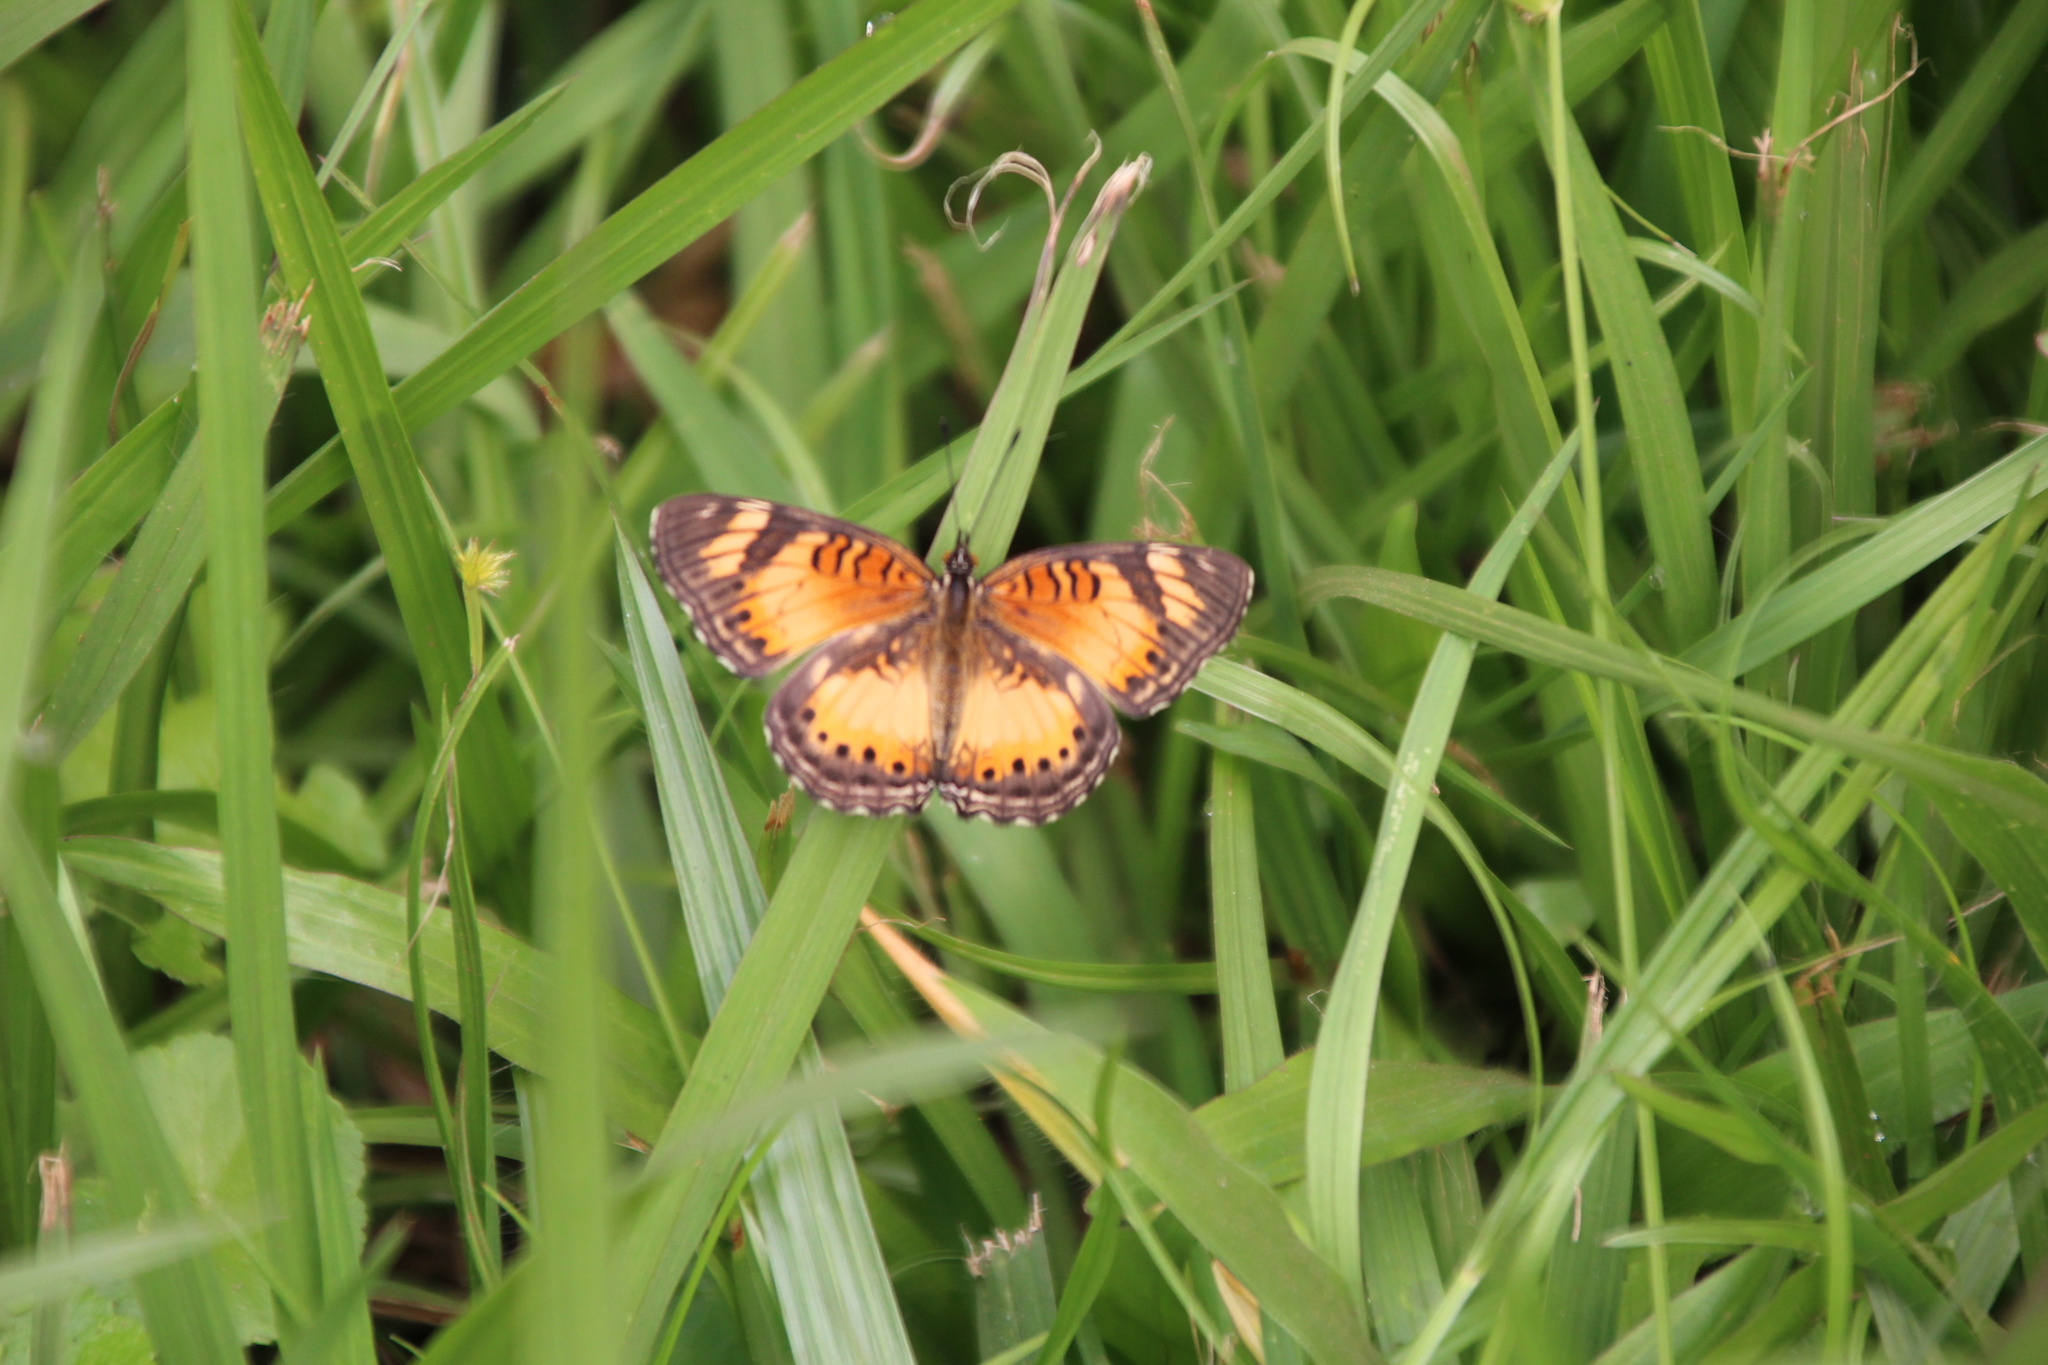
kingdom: Animalia
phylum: Arthropoda
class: Insecta
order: Lepidoptera
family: Nymphalidae
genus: Junonia
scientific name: Junonia sophia
